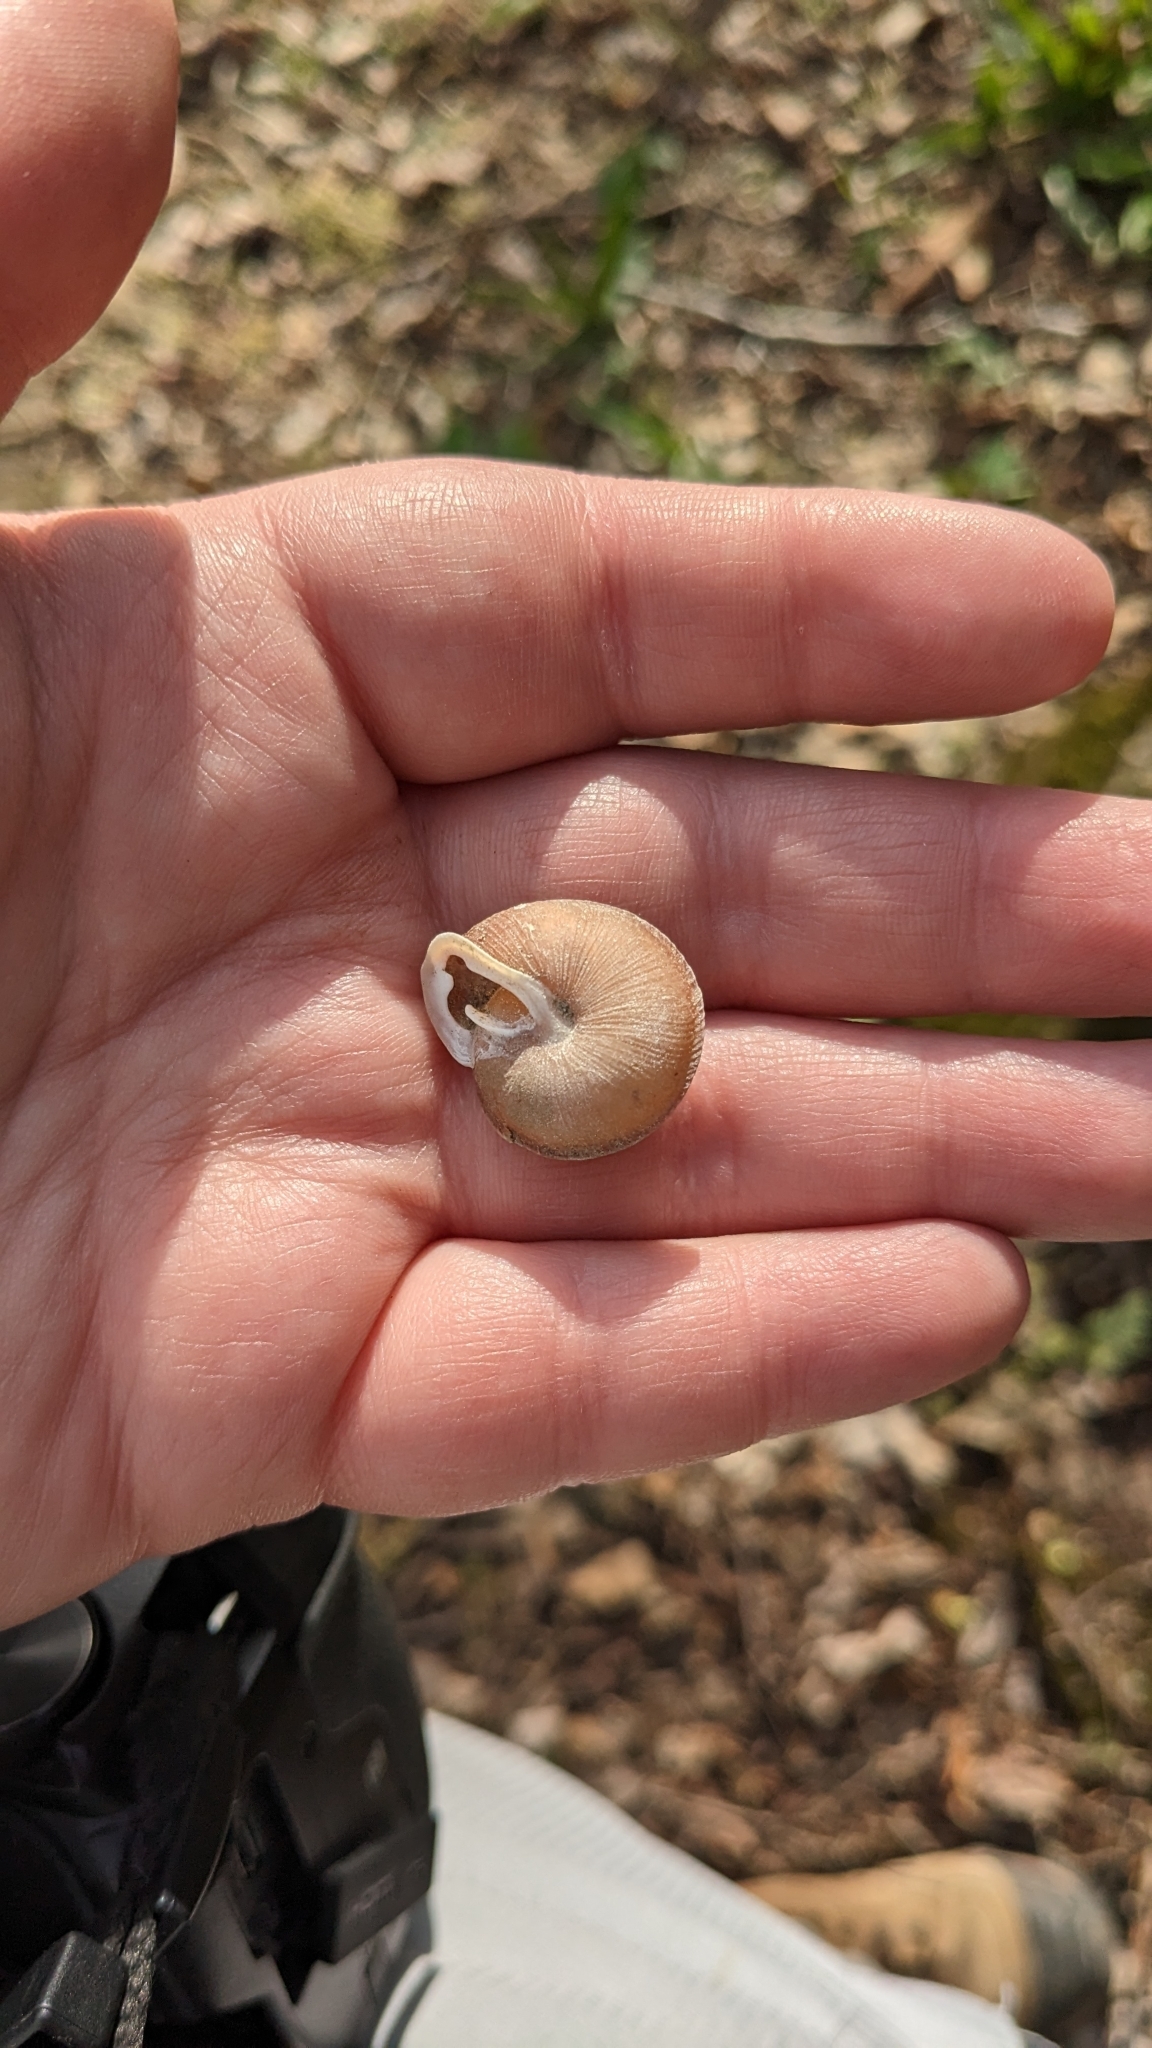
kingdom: Animalia
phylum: Mollusca
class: Gastropoda
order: Stylommatophora
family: Polygyridae
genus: Xolotrema
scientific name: Xolotrema obstrictum
